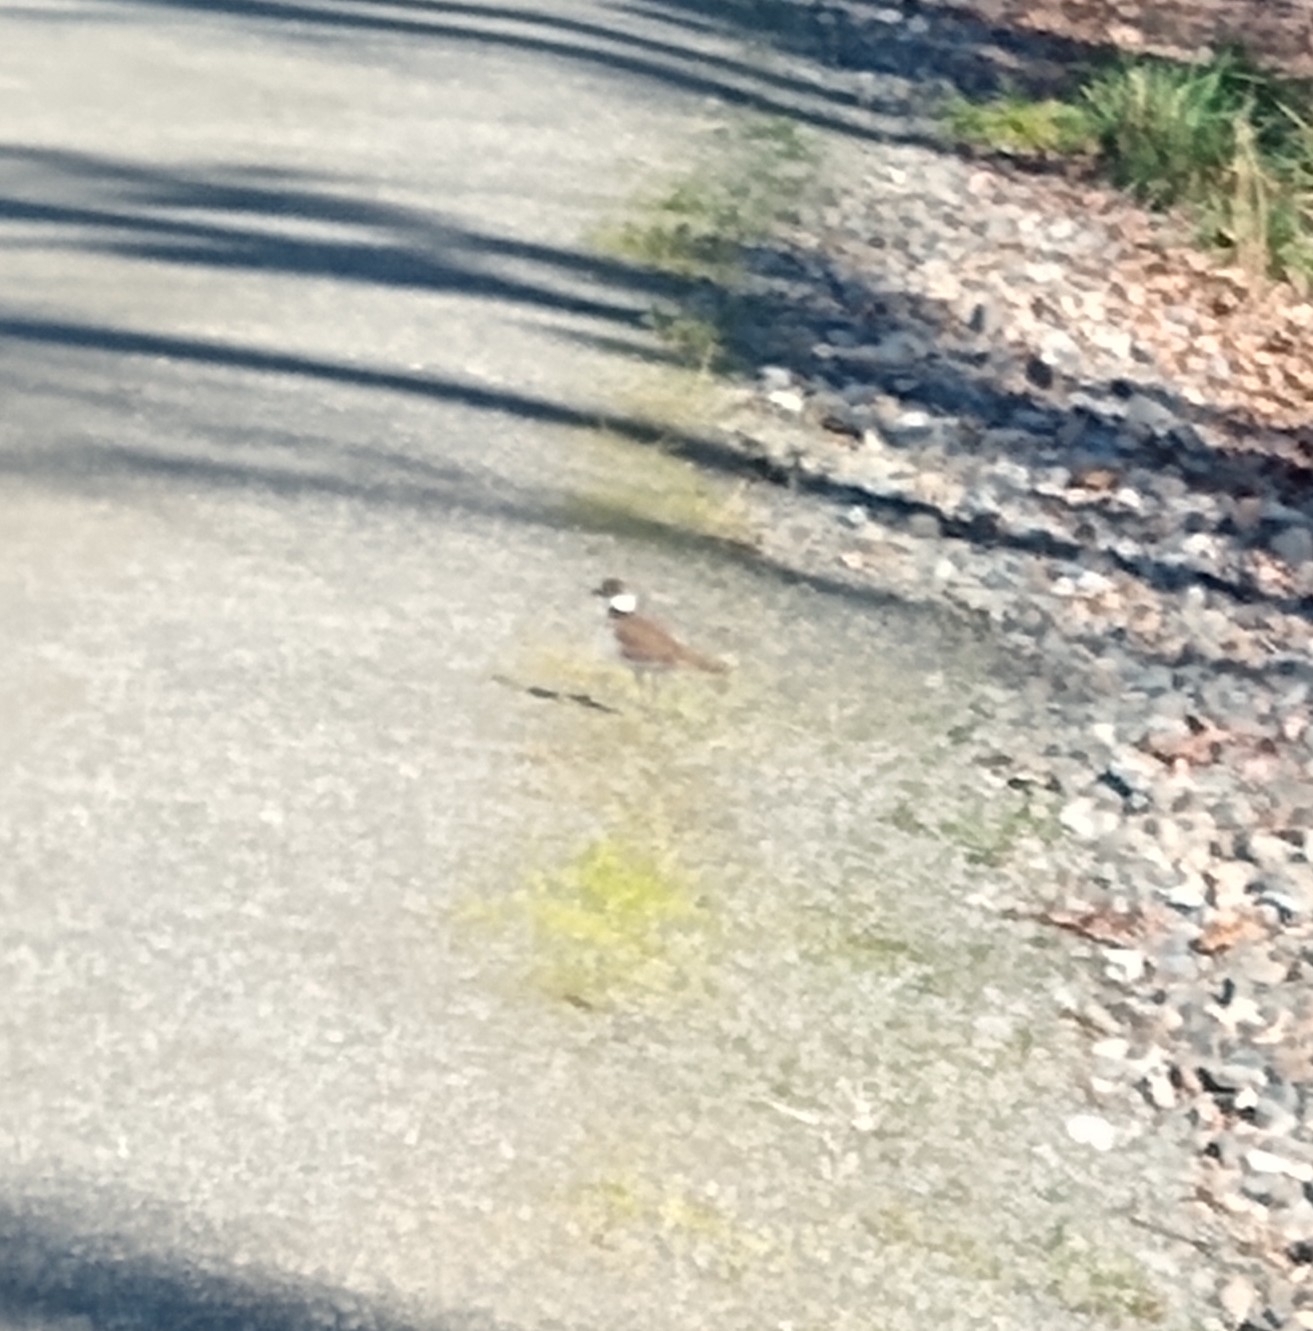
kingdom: Animalia
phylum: Chordata
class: Aves
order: Charadriiformes
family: Charadriidae
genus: Charadrius
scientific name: Charadrius vociferus
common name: Killdeer
